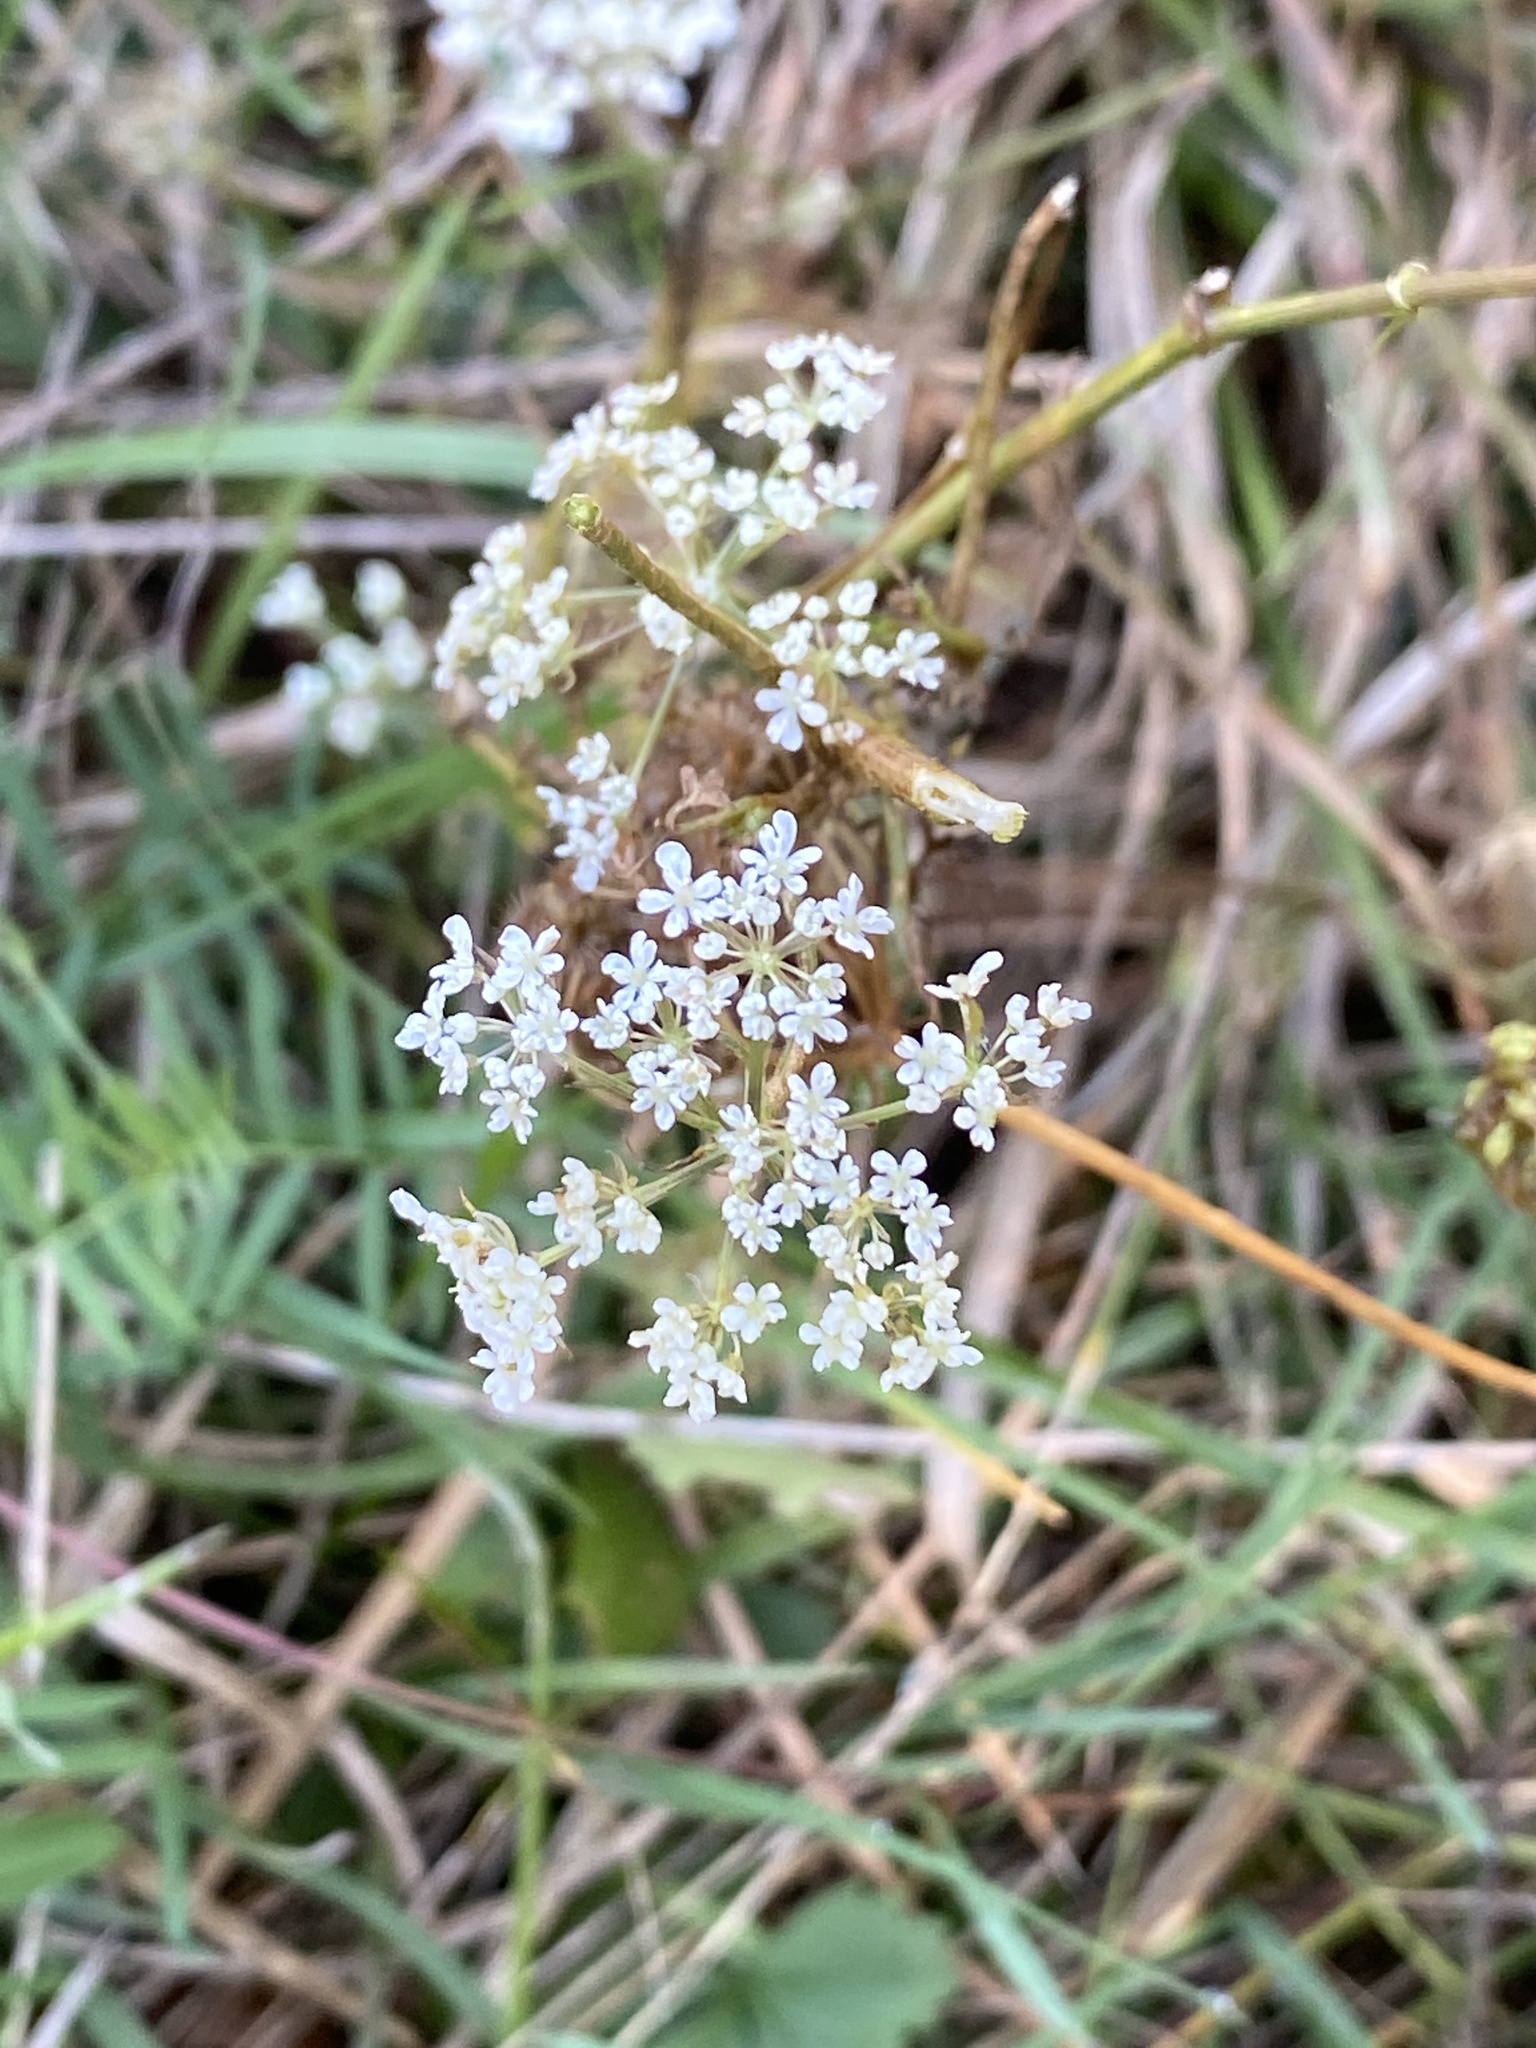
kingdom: Plantae
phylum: Tracheophyta
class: Magnoliopsida
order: Apiales
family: Apiaceae
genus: Daucus
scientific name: Daucus carota
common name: Wild carrot
